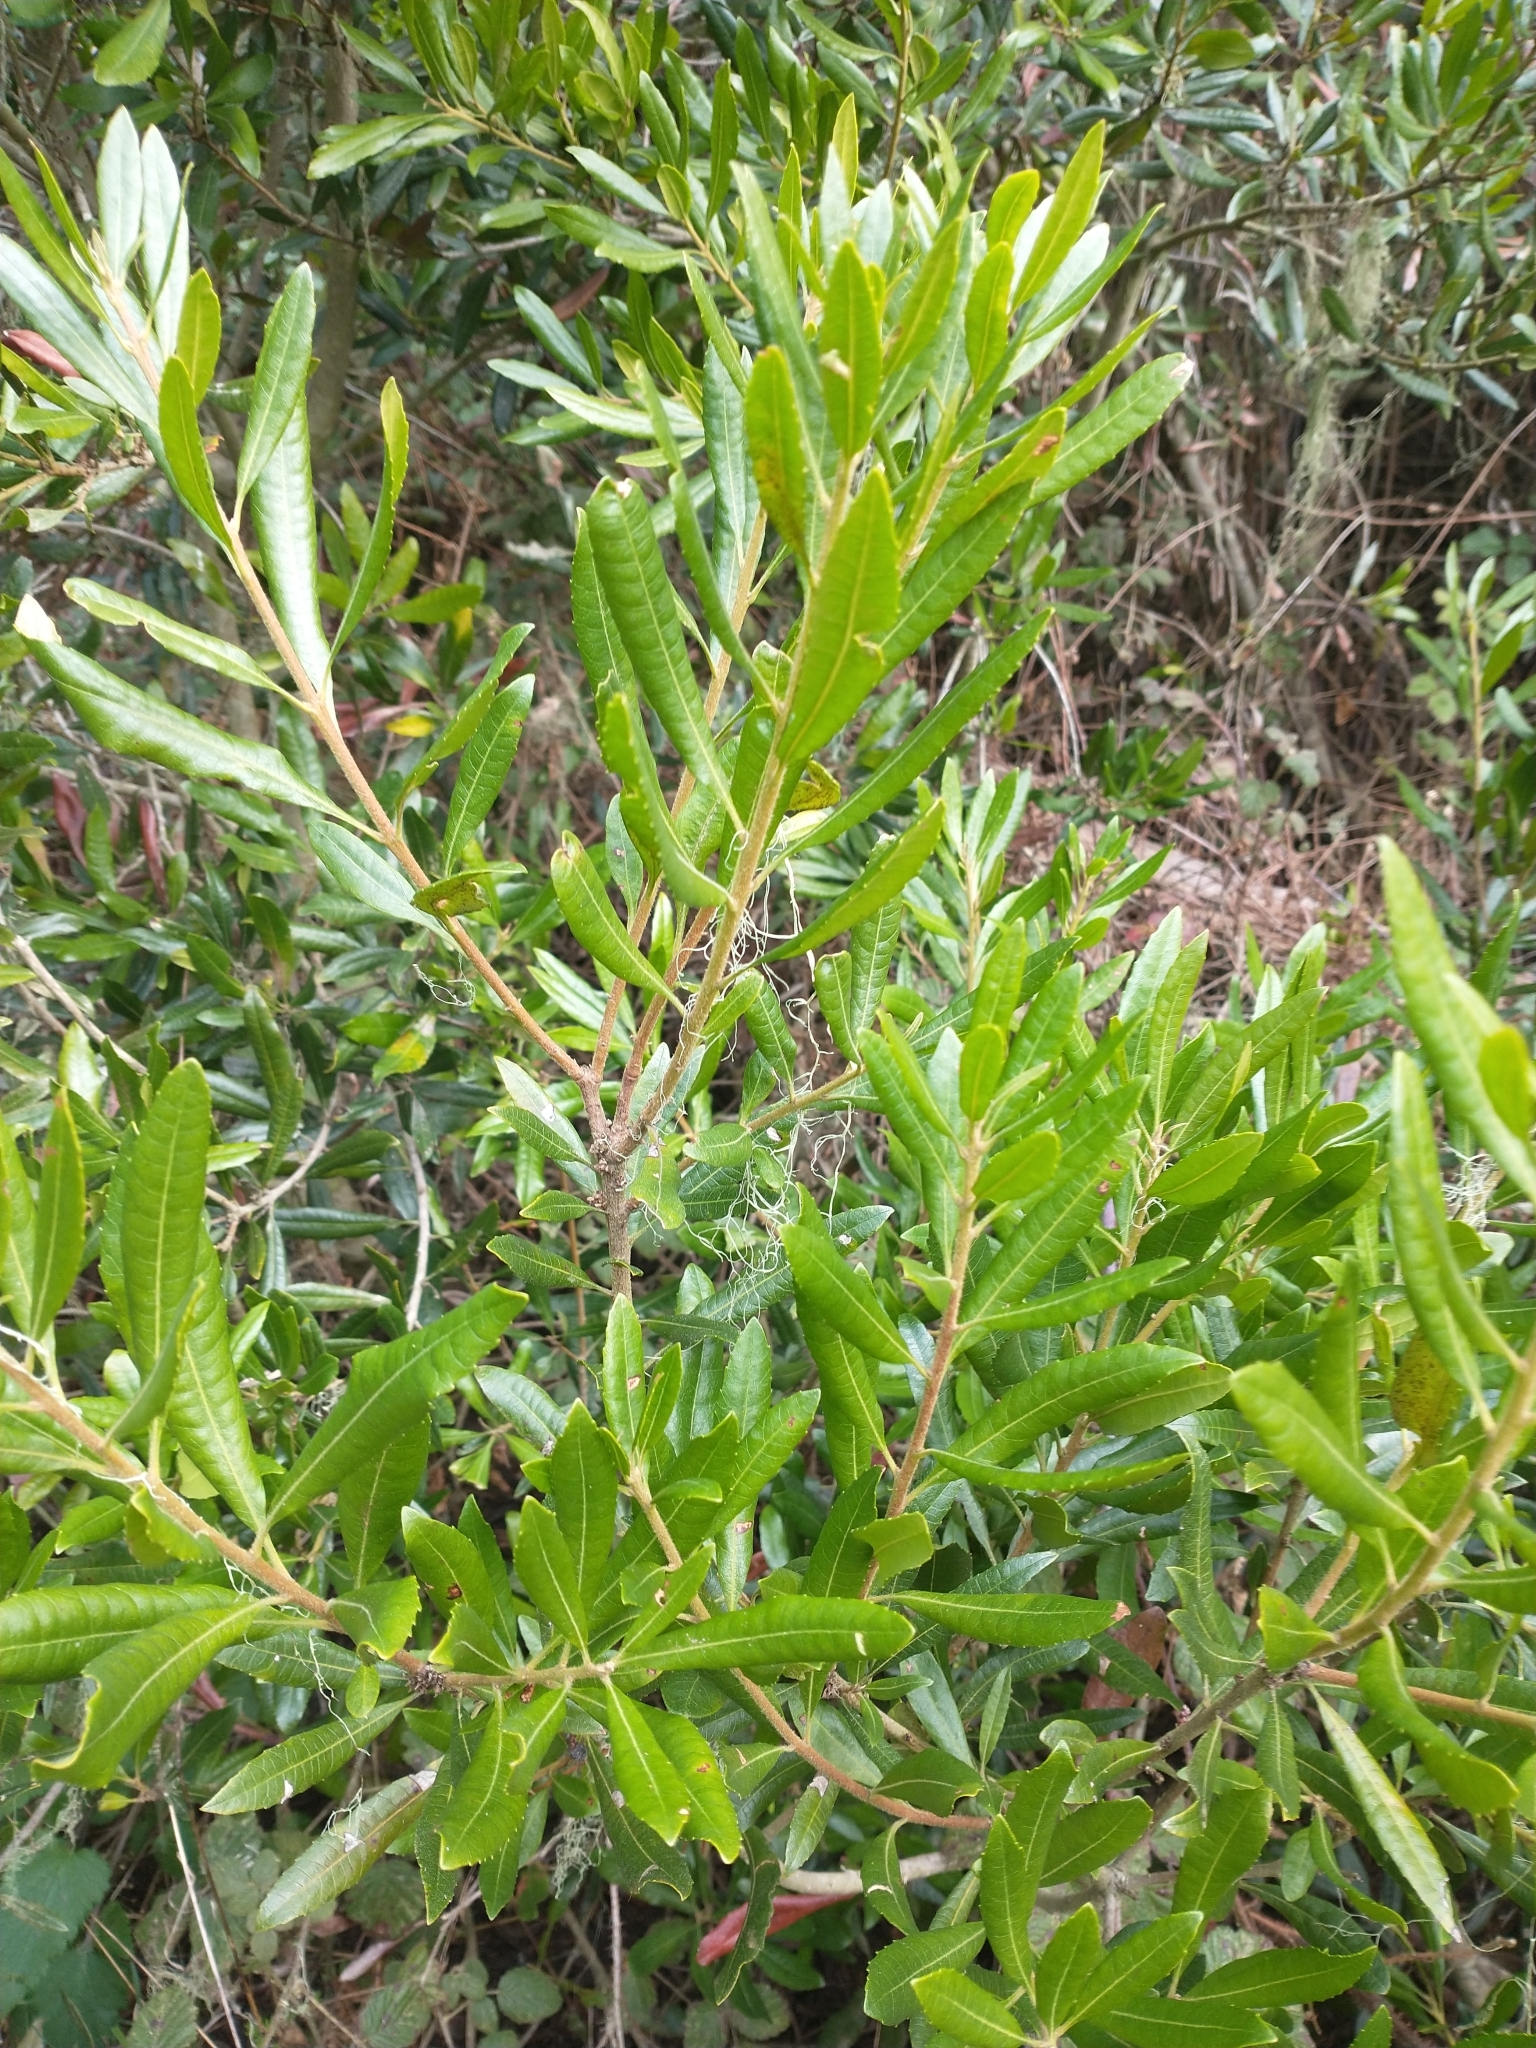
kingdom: Plantae
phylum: Tracheophyta
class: Magnoliopsida
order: Fagales
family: Myricaceae
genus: Morella
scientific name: Morella californica
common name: California wax-myrtle
